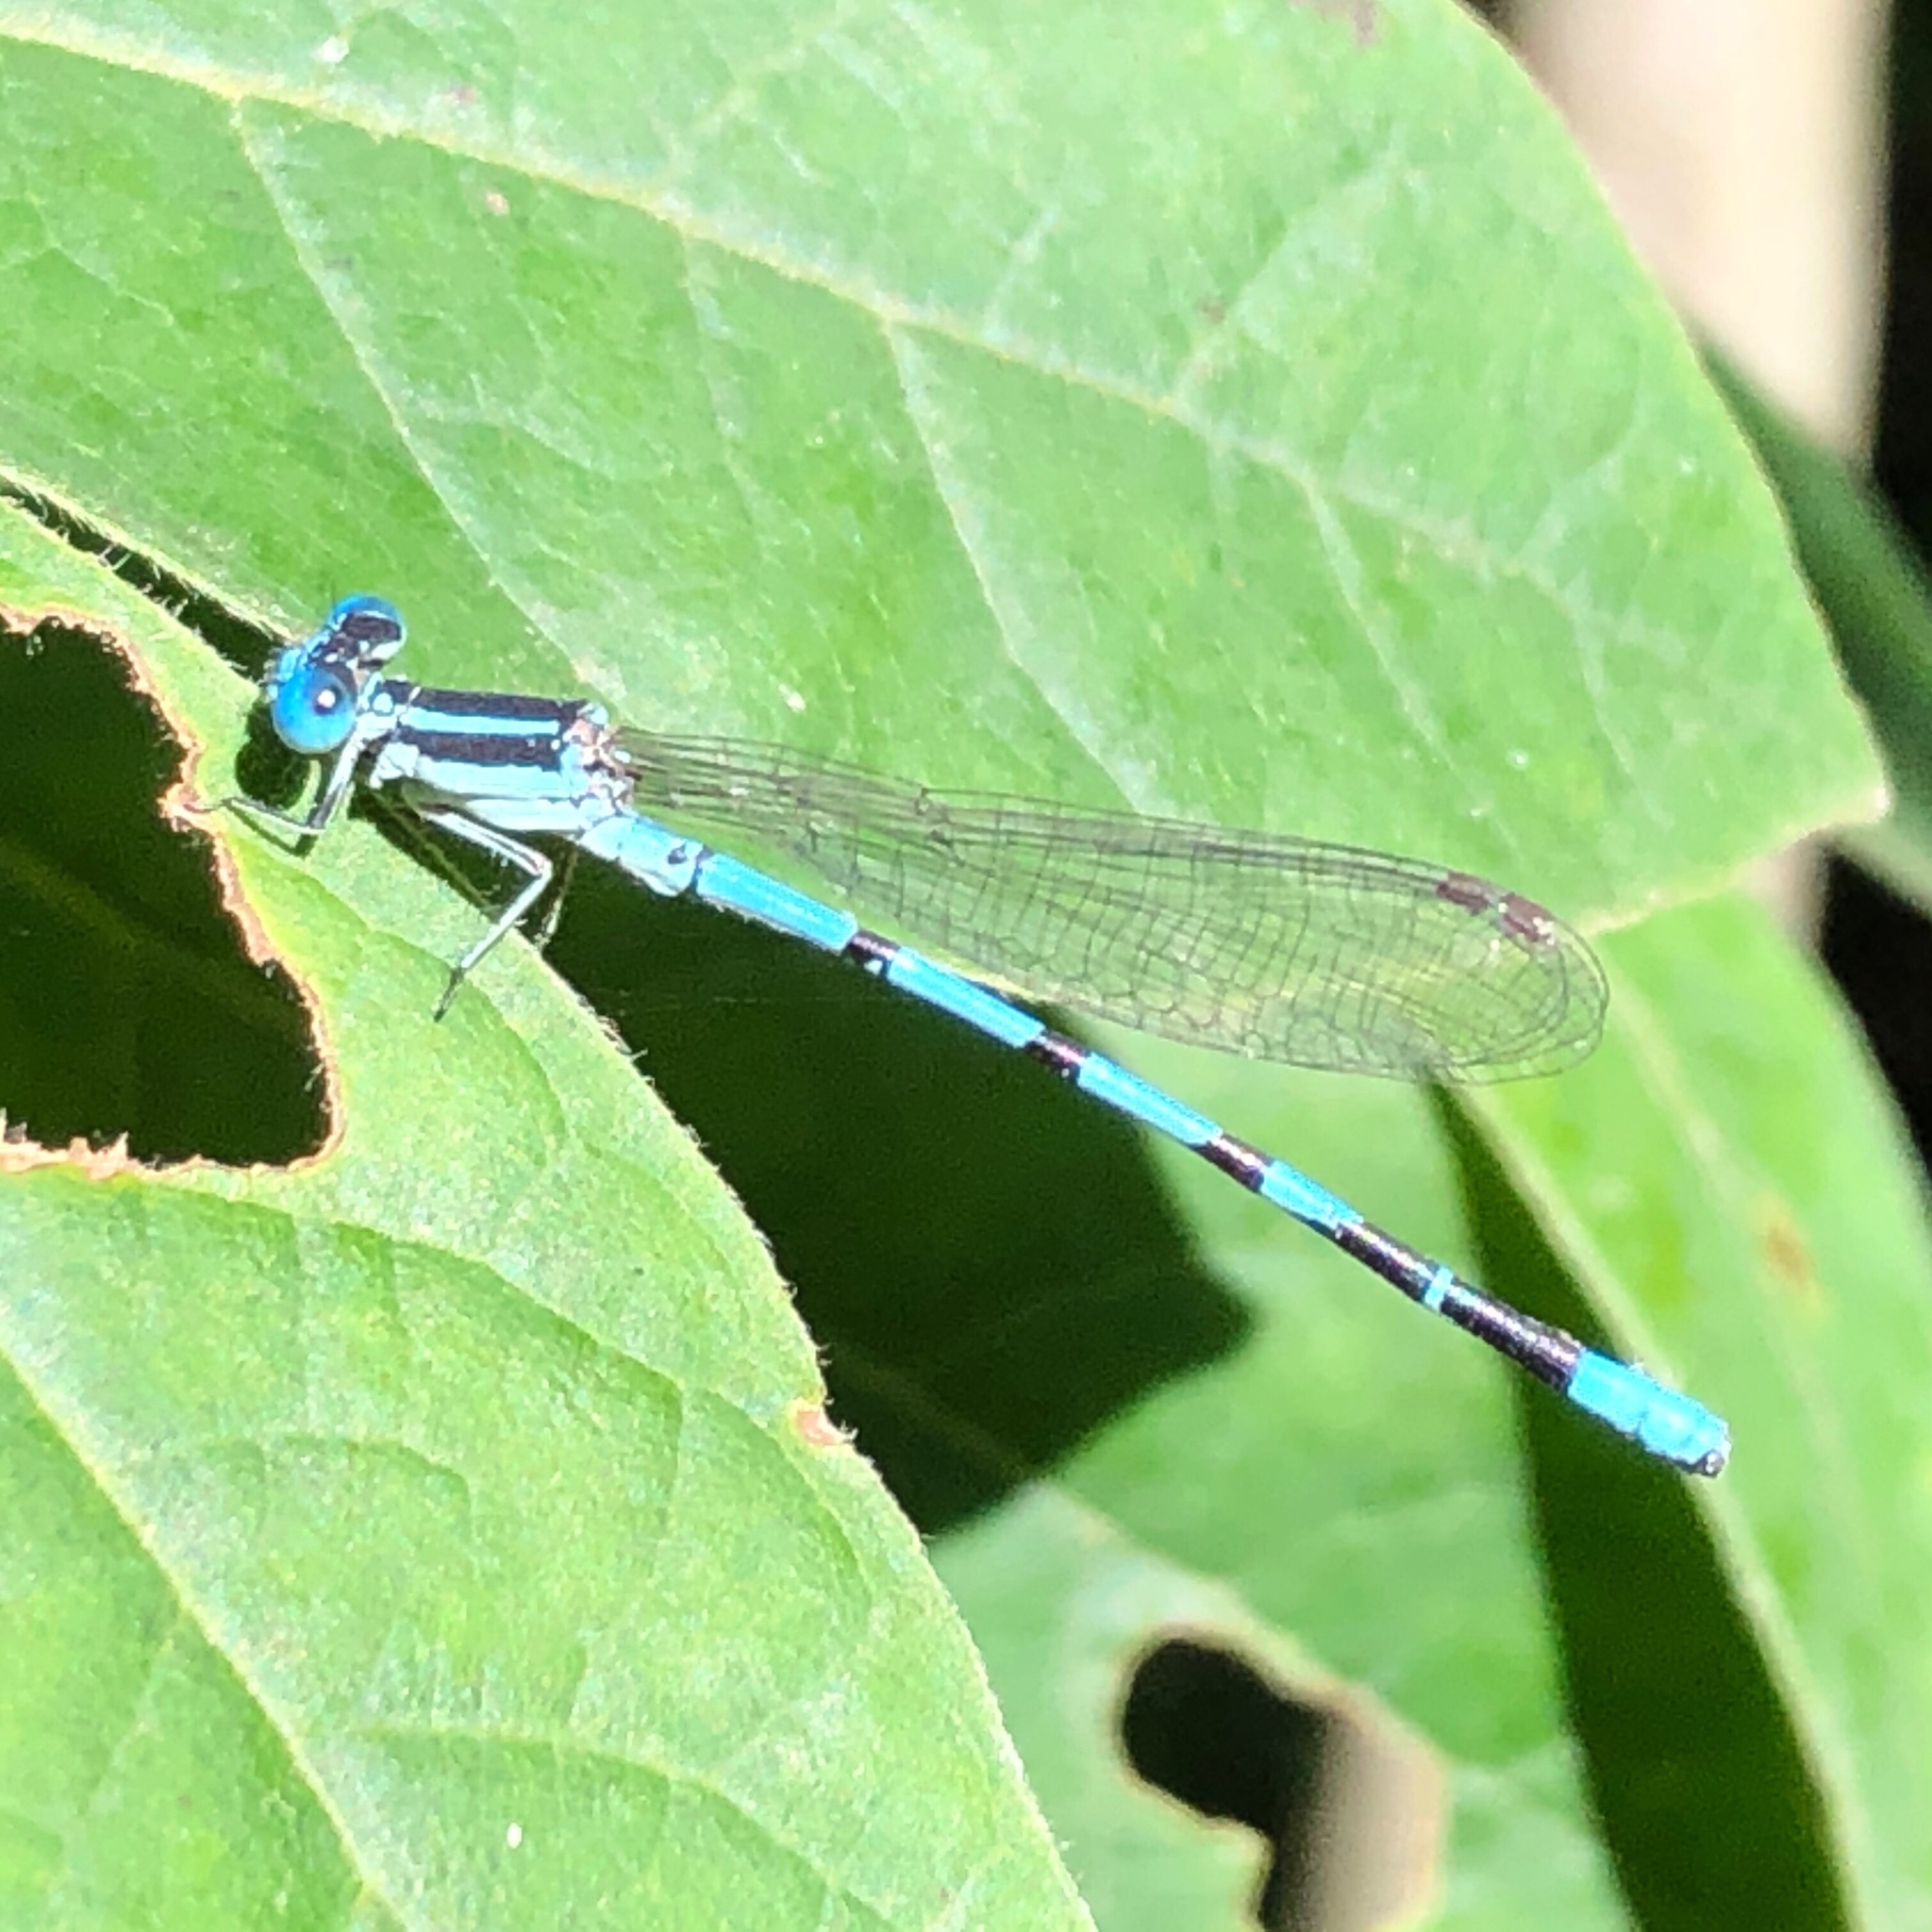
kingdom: Animalia
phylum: Arthropoda
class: Insecta
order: Odonata
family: Coenagrionidae
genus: Argia
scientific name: Argia bipunctulata
